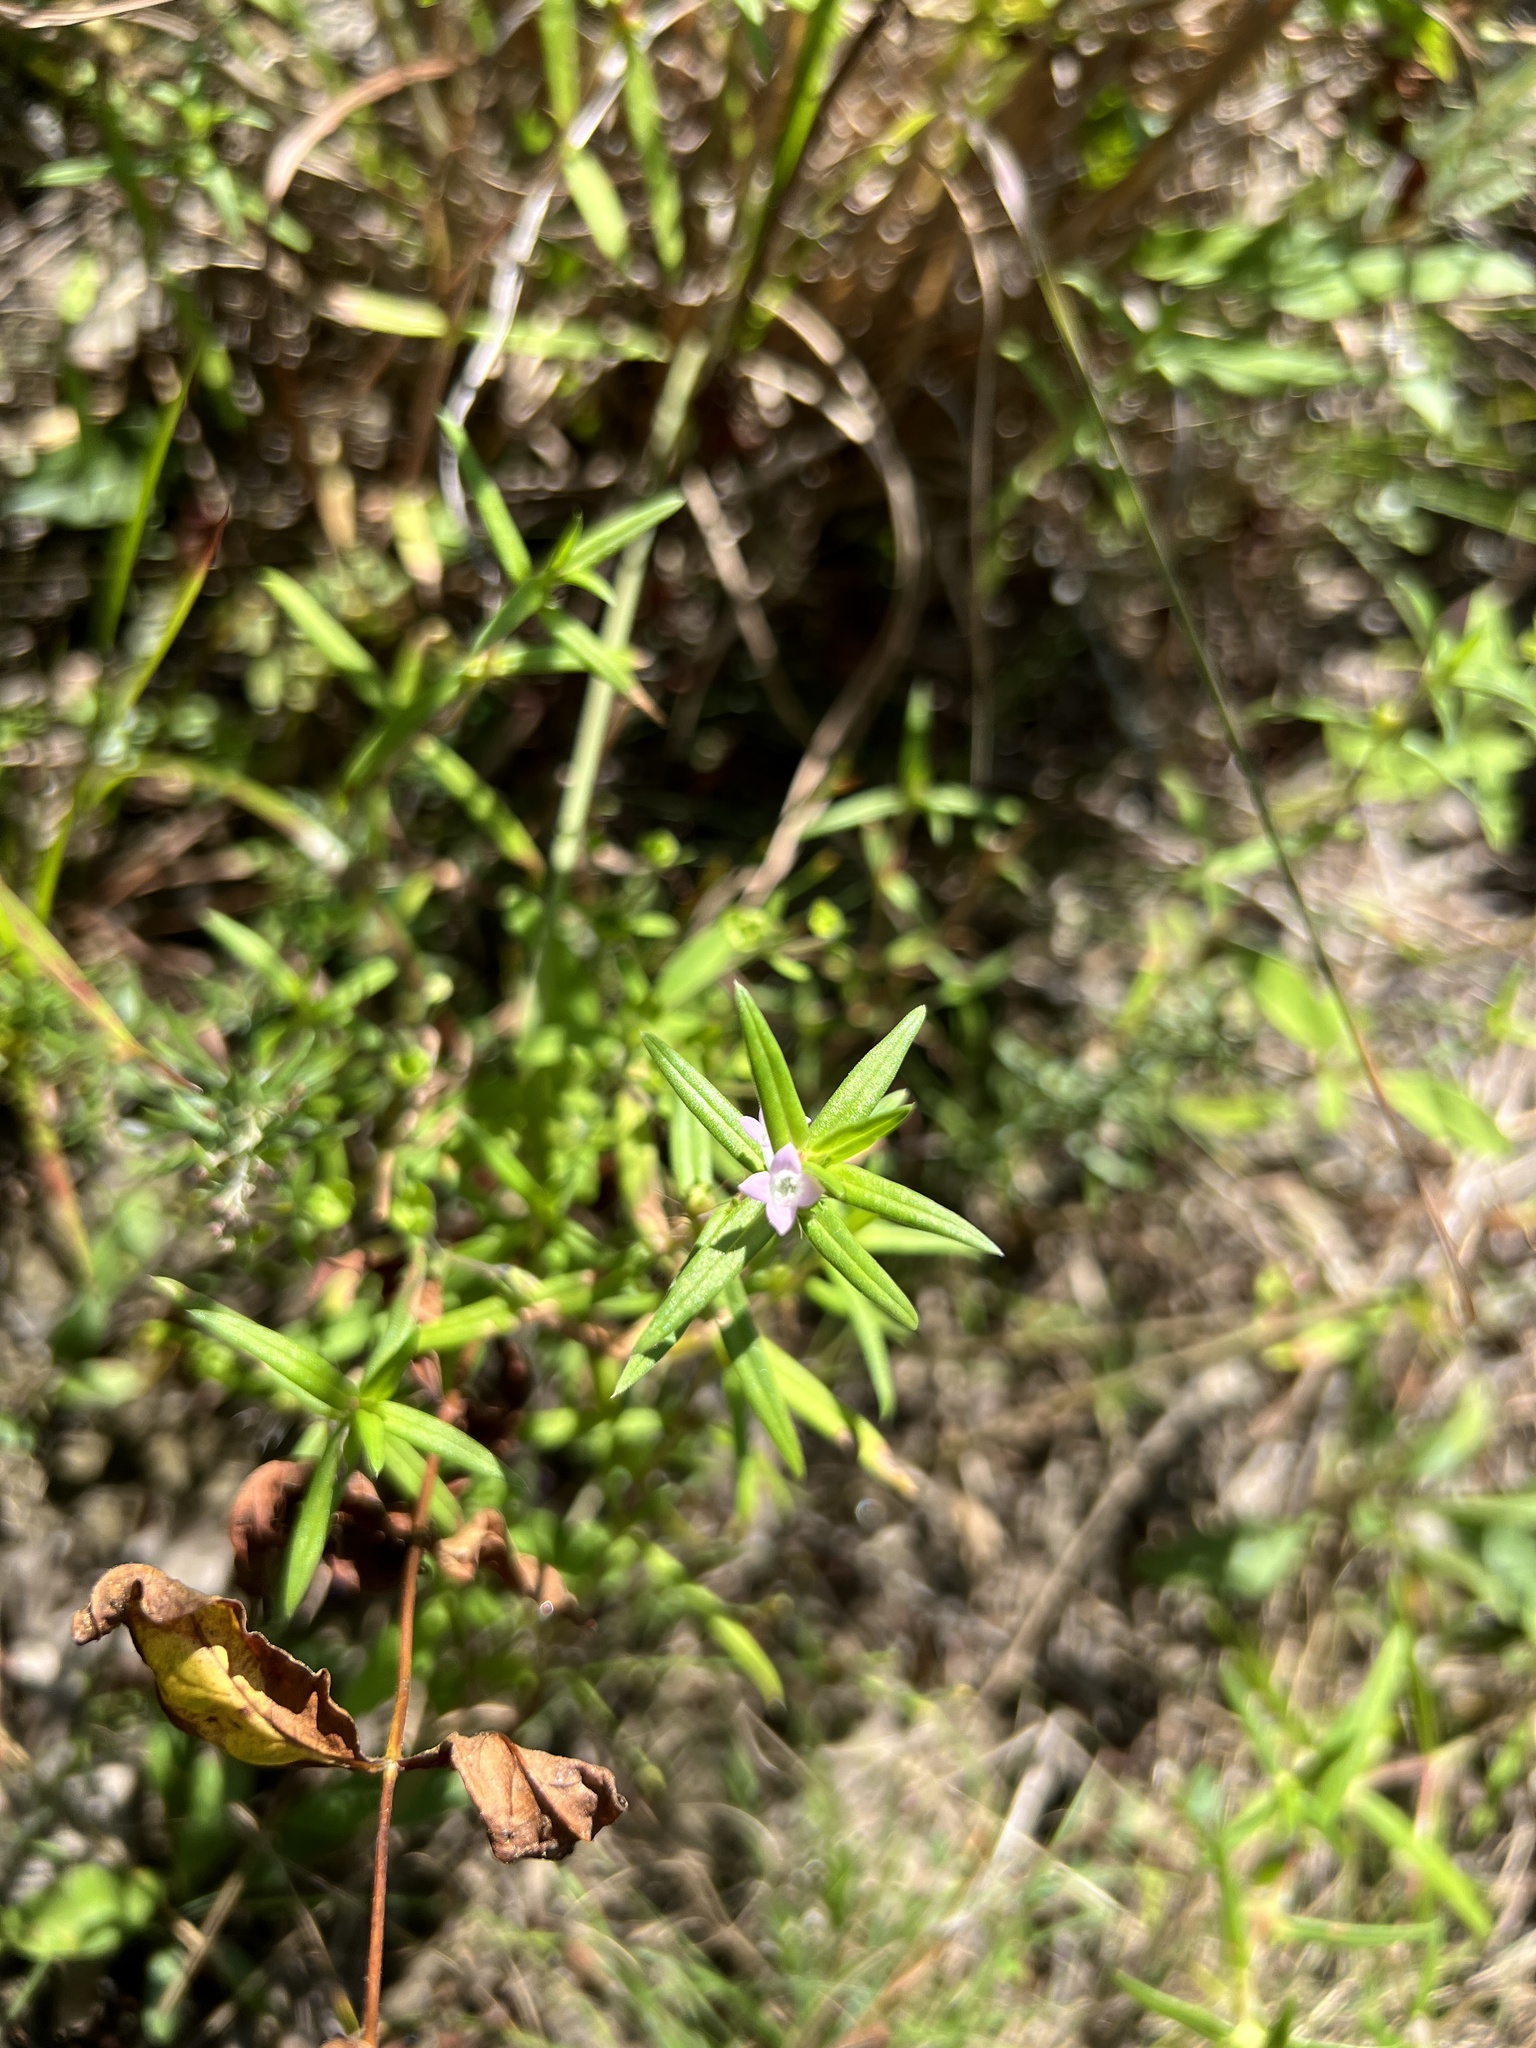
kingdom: Plantae
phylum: Tracheophyta
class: Magnoliopsida
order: Gentianales
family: Rubiaceae
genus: Hexasepalum
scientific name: Hexasepalum teres
